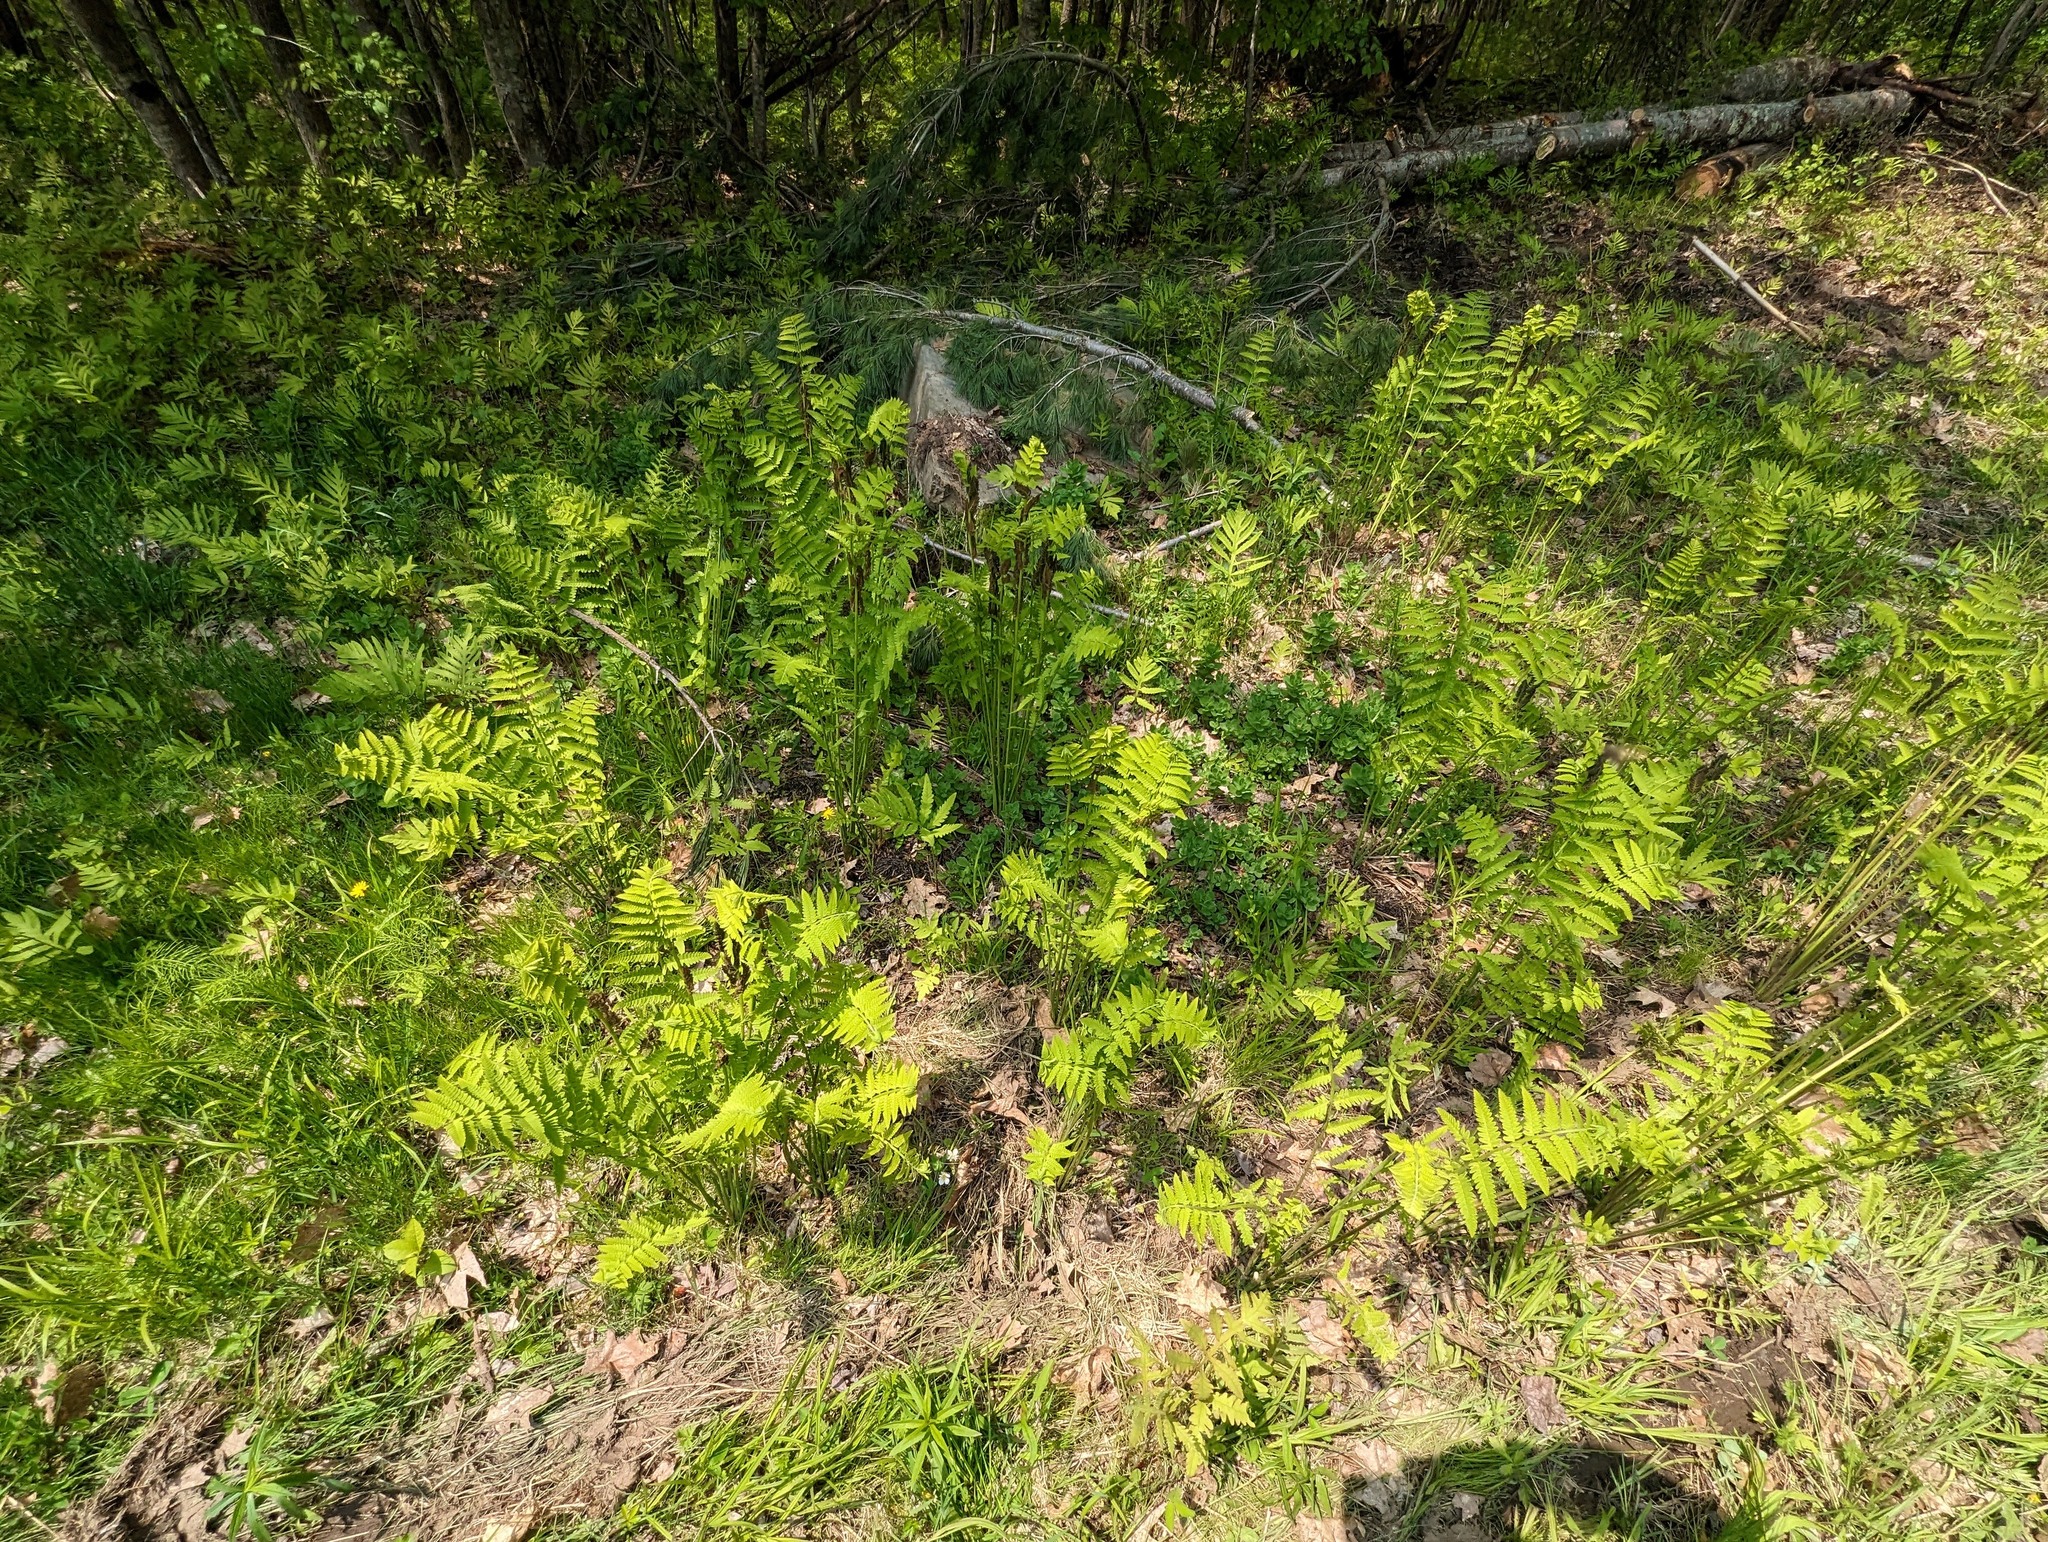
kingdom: Plantae
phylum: Tracheophyta
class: Polypodiopsida
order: Osmundales
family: Osmundaceae
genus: Claytosmunda
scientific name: Claytosmunda claytoniana
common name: Clayton's fern
